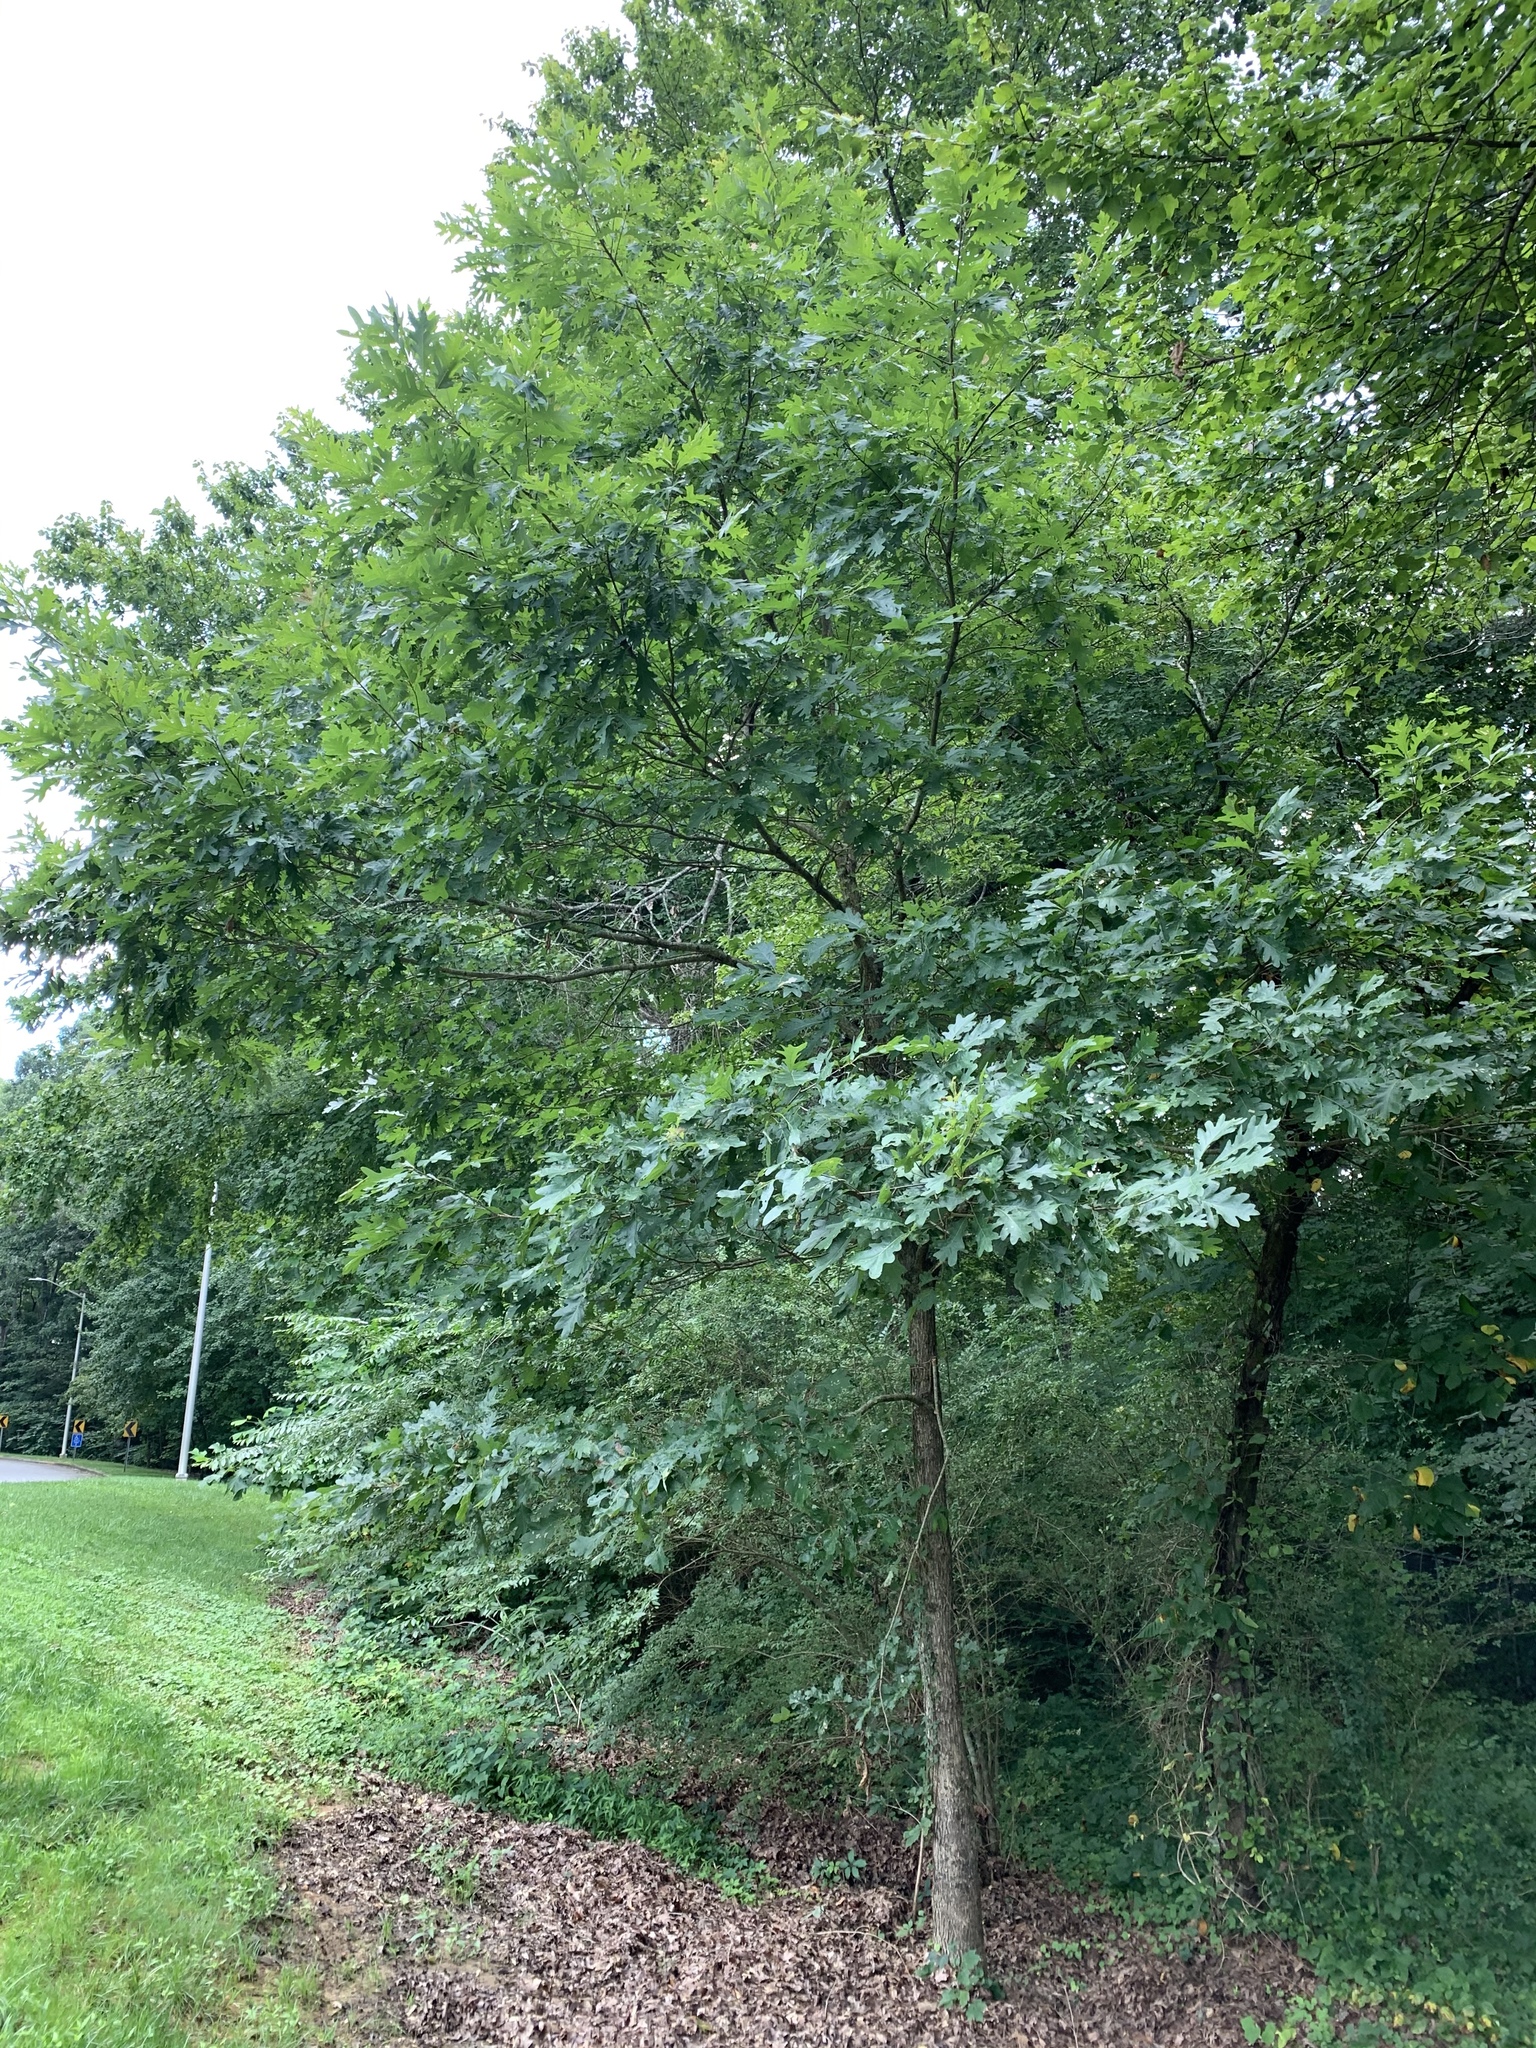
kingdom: Plantae
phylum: Tracheophyta
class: Magnoliopsida
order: Fagales
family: Fagaceae
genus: Quercus
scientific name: Quercus alba
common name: White oak
